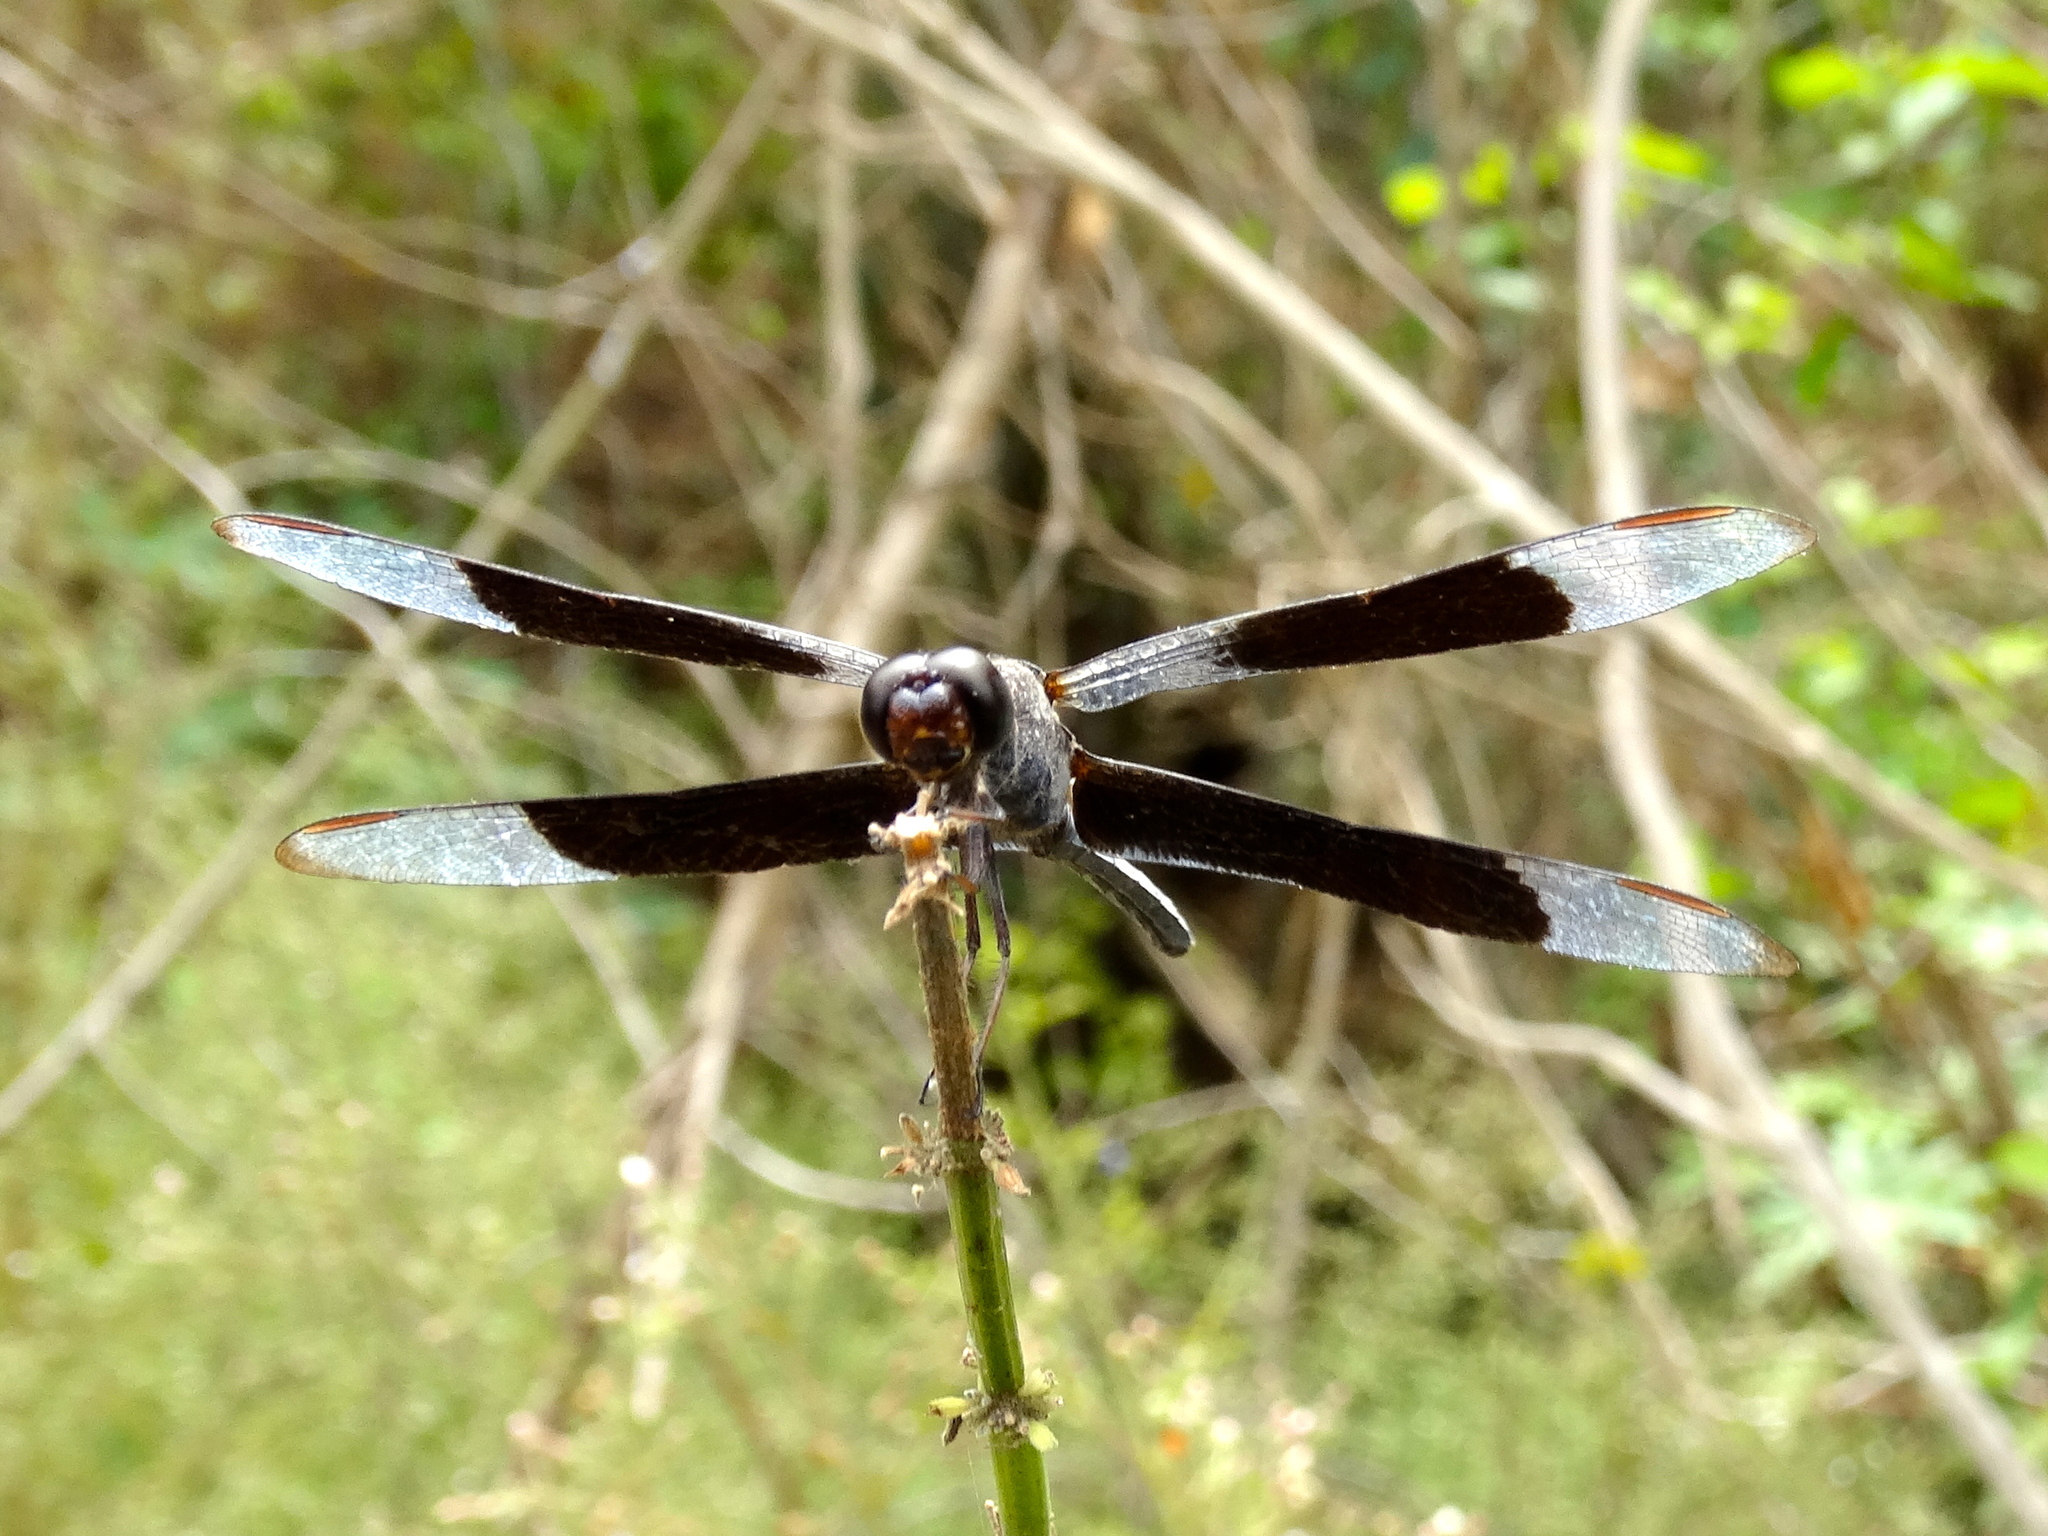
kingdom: Animalia
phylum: Arthropoda
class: Insecta
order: Odonata
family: Libellulidae
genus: Erythrodiplax
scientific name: Erythrodiplax funerea
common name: Black-winged dragonlet
